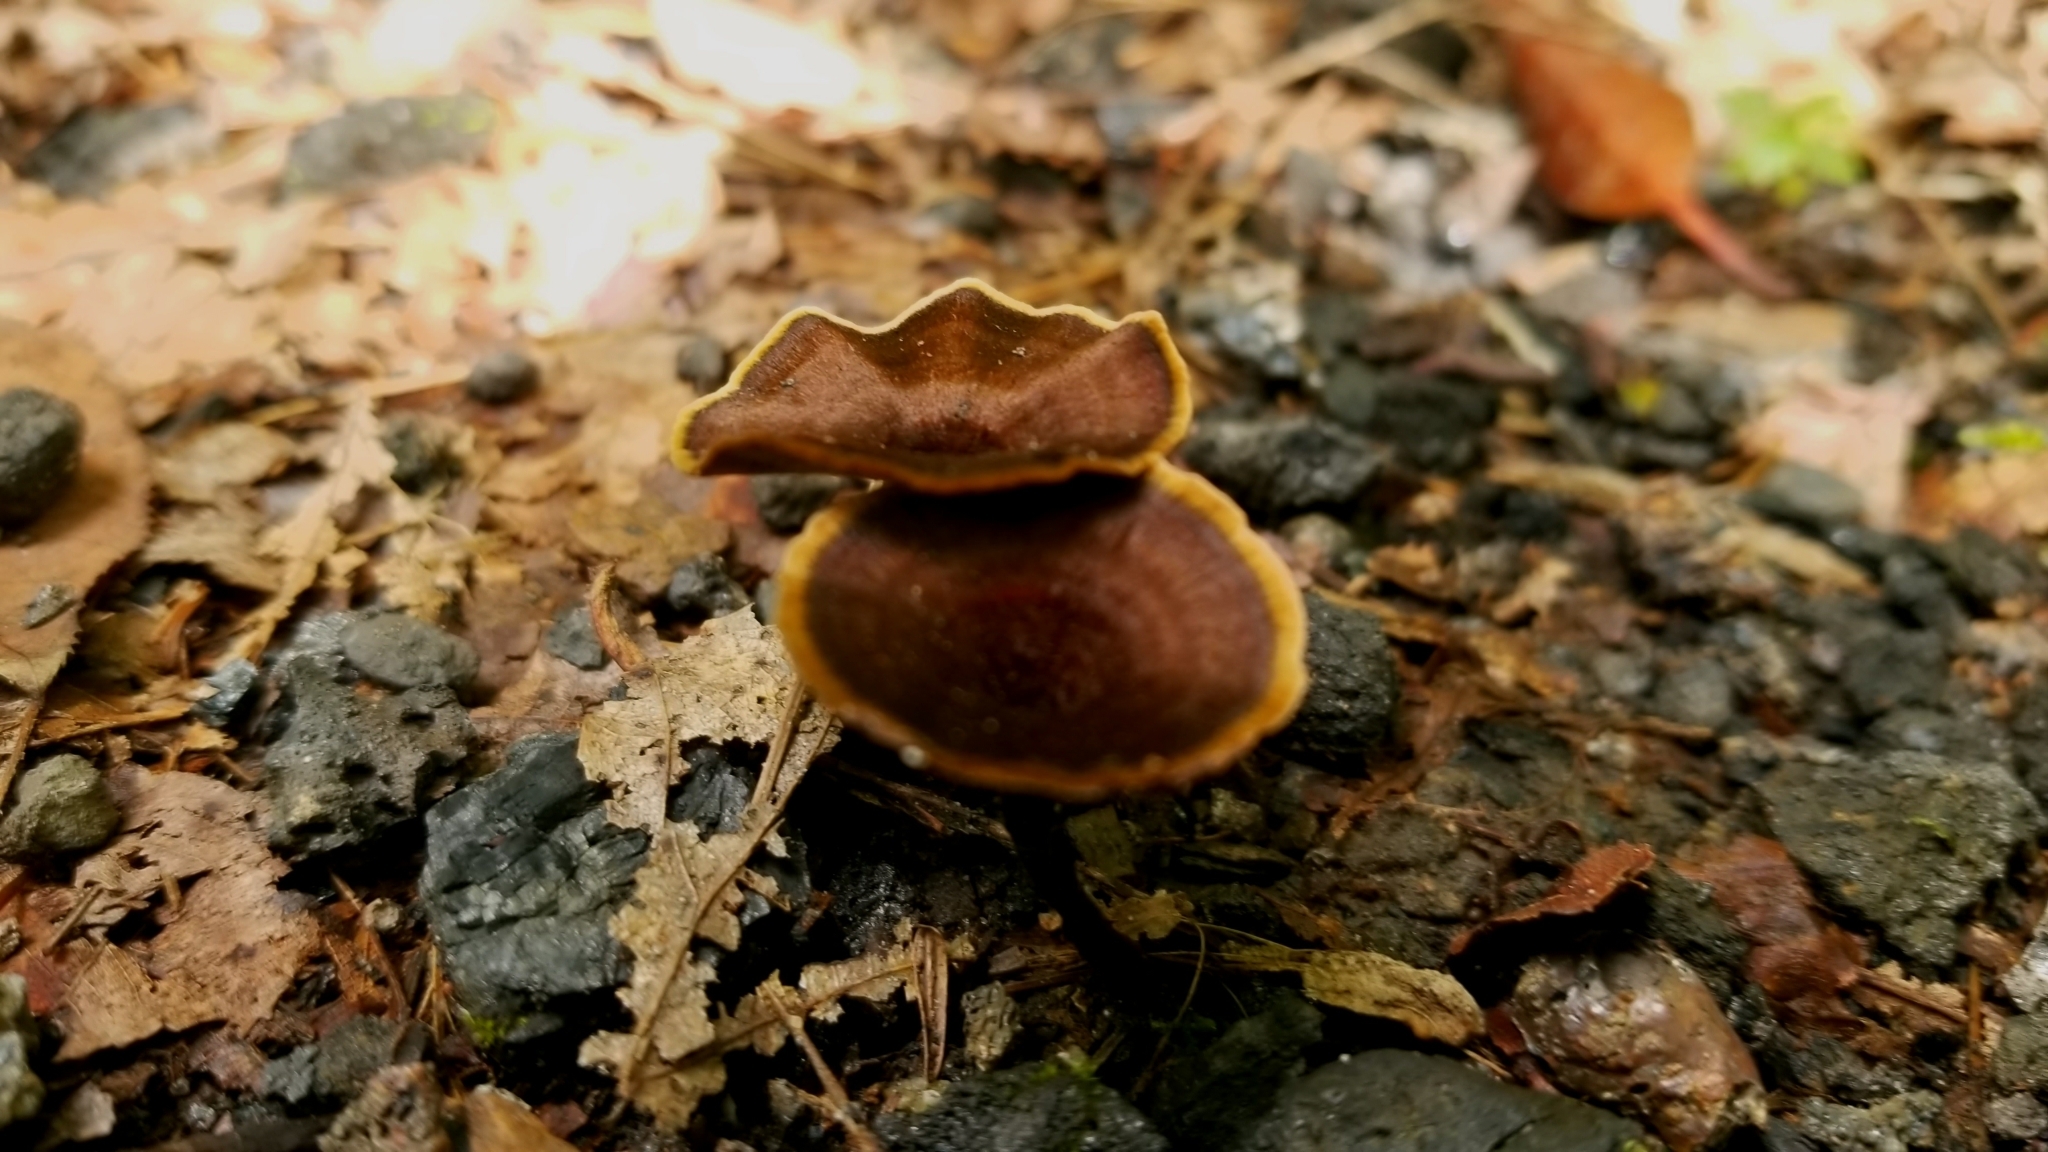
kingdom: Fungi
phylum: Basidiomycota
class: Agaricomycetes
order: Hymenochaetales
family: Hymenochaetaceae
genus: Coltricia
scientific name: Coltricia cinnamomea
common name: Shiny cinnamon polypore
